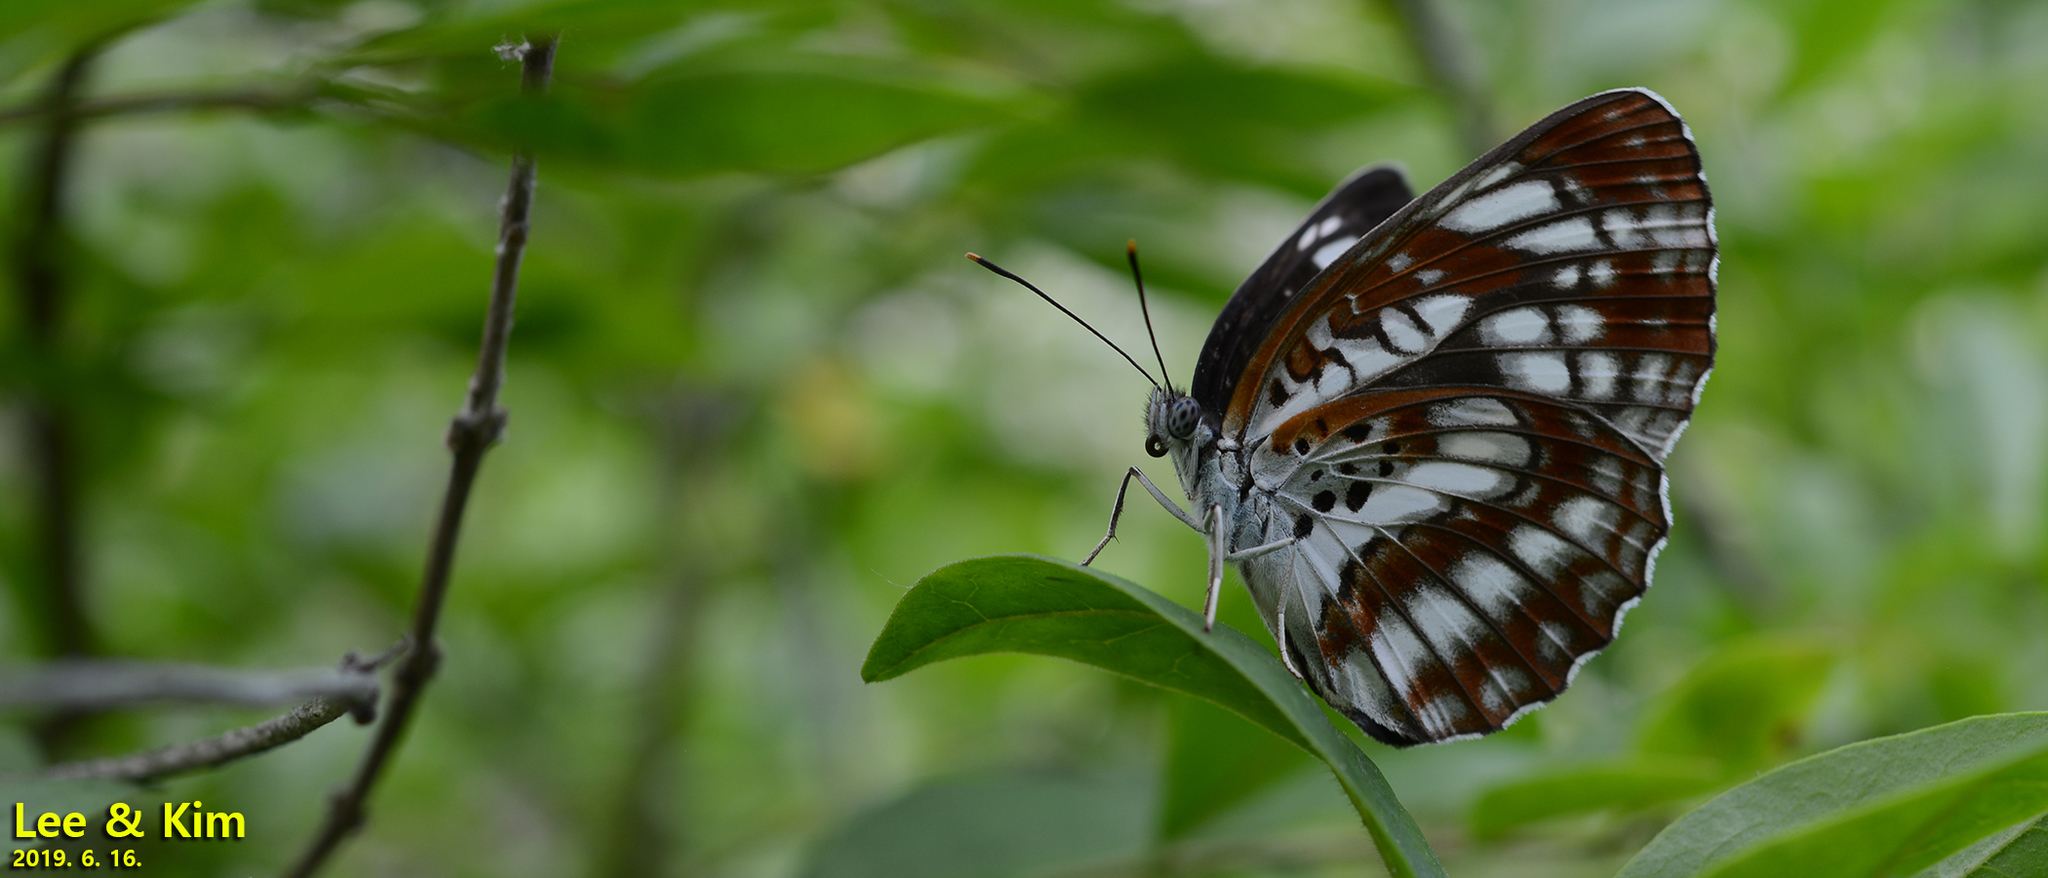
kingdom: Animalia
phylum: Arthropoda
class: Insecta
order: Lepidoptera
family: Nymphalidae
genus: Neptis
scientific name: Neptis pryeri
